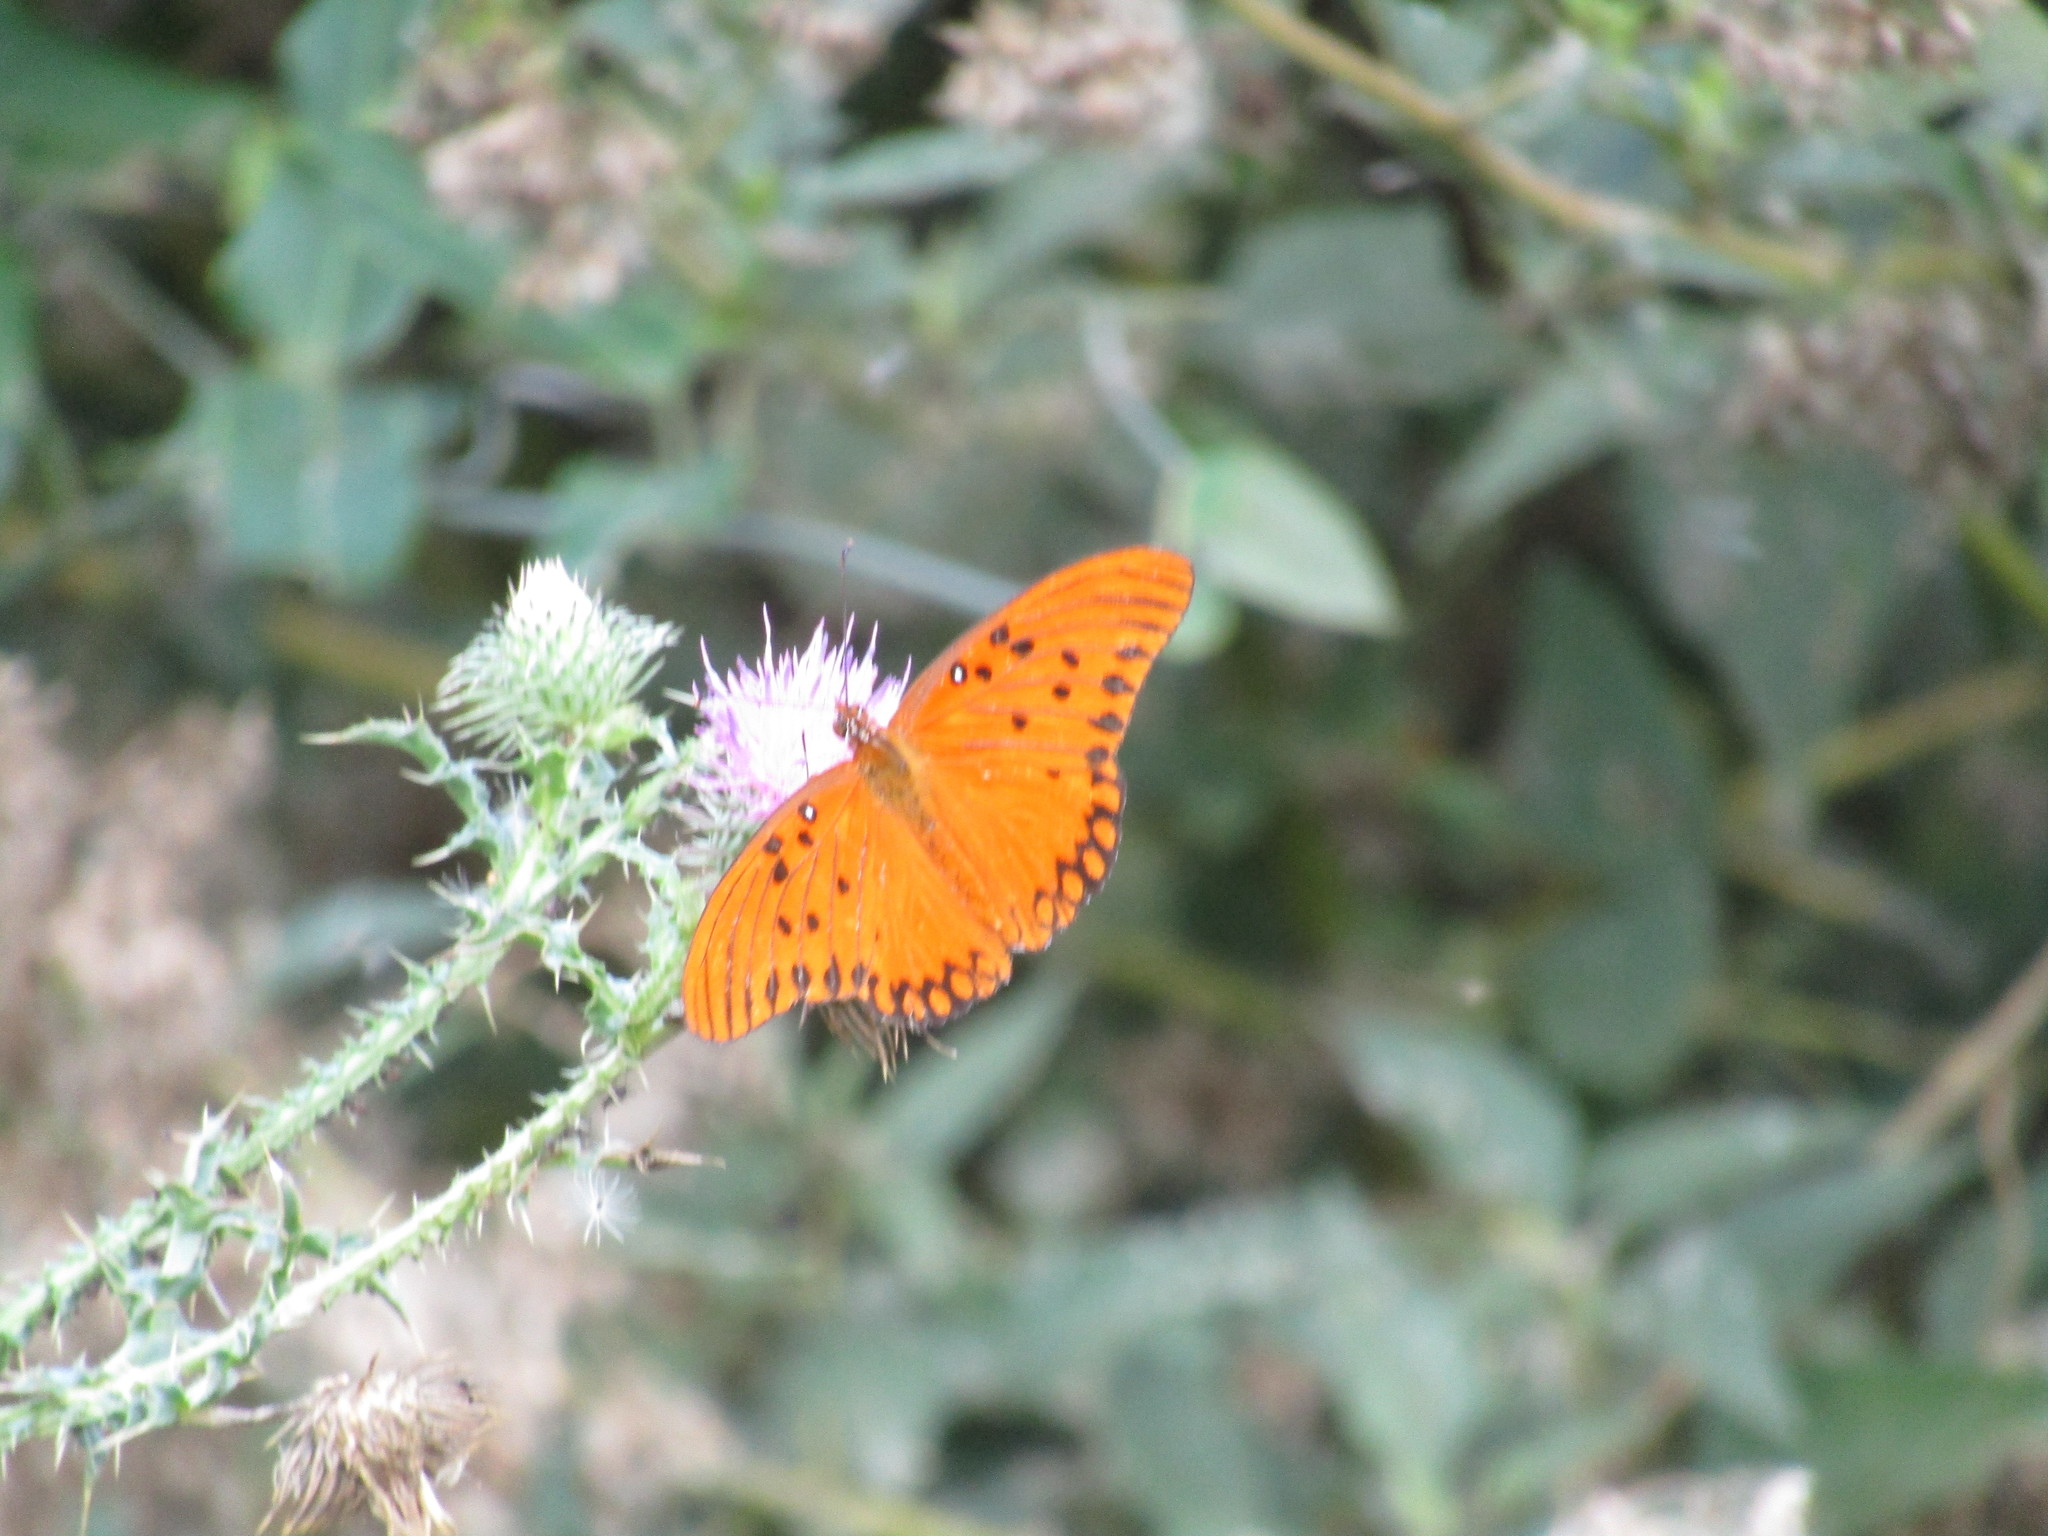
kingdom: Animalia
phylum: Arthropoda
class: Insecta
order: Lepidoptera
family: Nymphalidae
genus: Dione
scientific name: Dione vanillae
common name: Gulf fritillary
